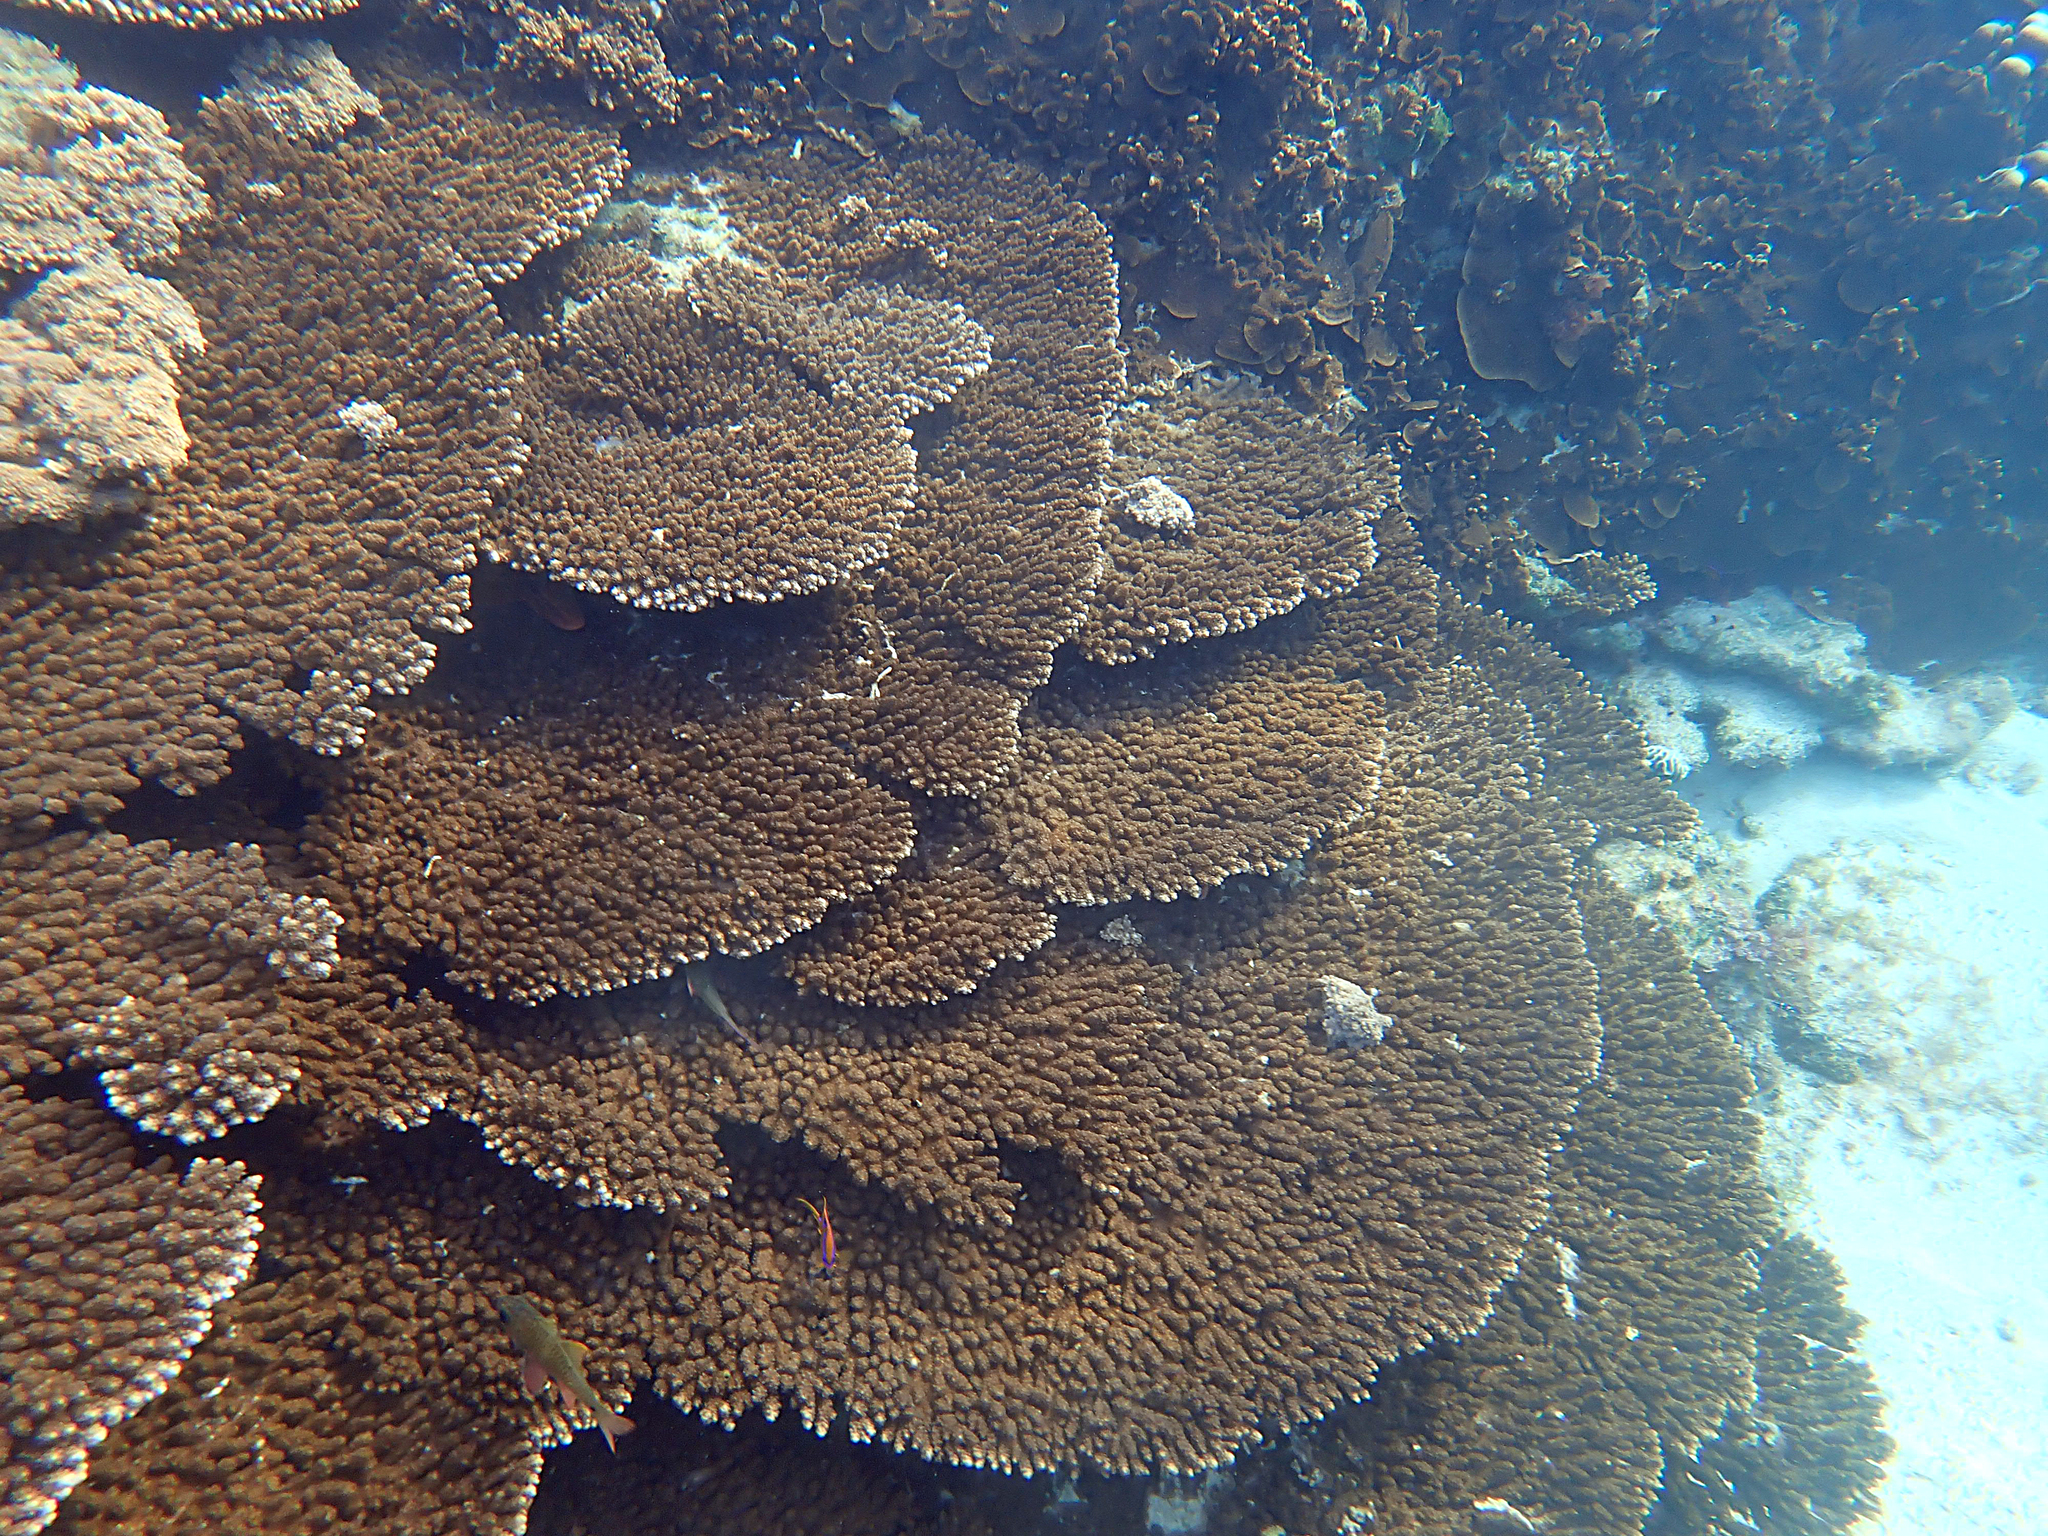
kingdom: Animalia
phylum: Cnidaria
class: Anthozoa
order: Scleractinia
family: Acroporidae
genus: Acropora
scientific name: Acropora solitaryensis
